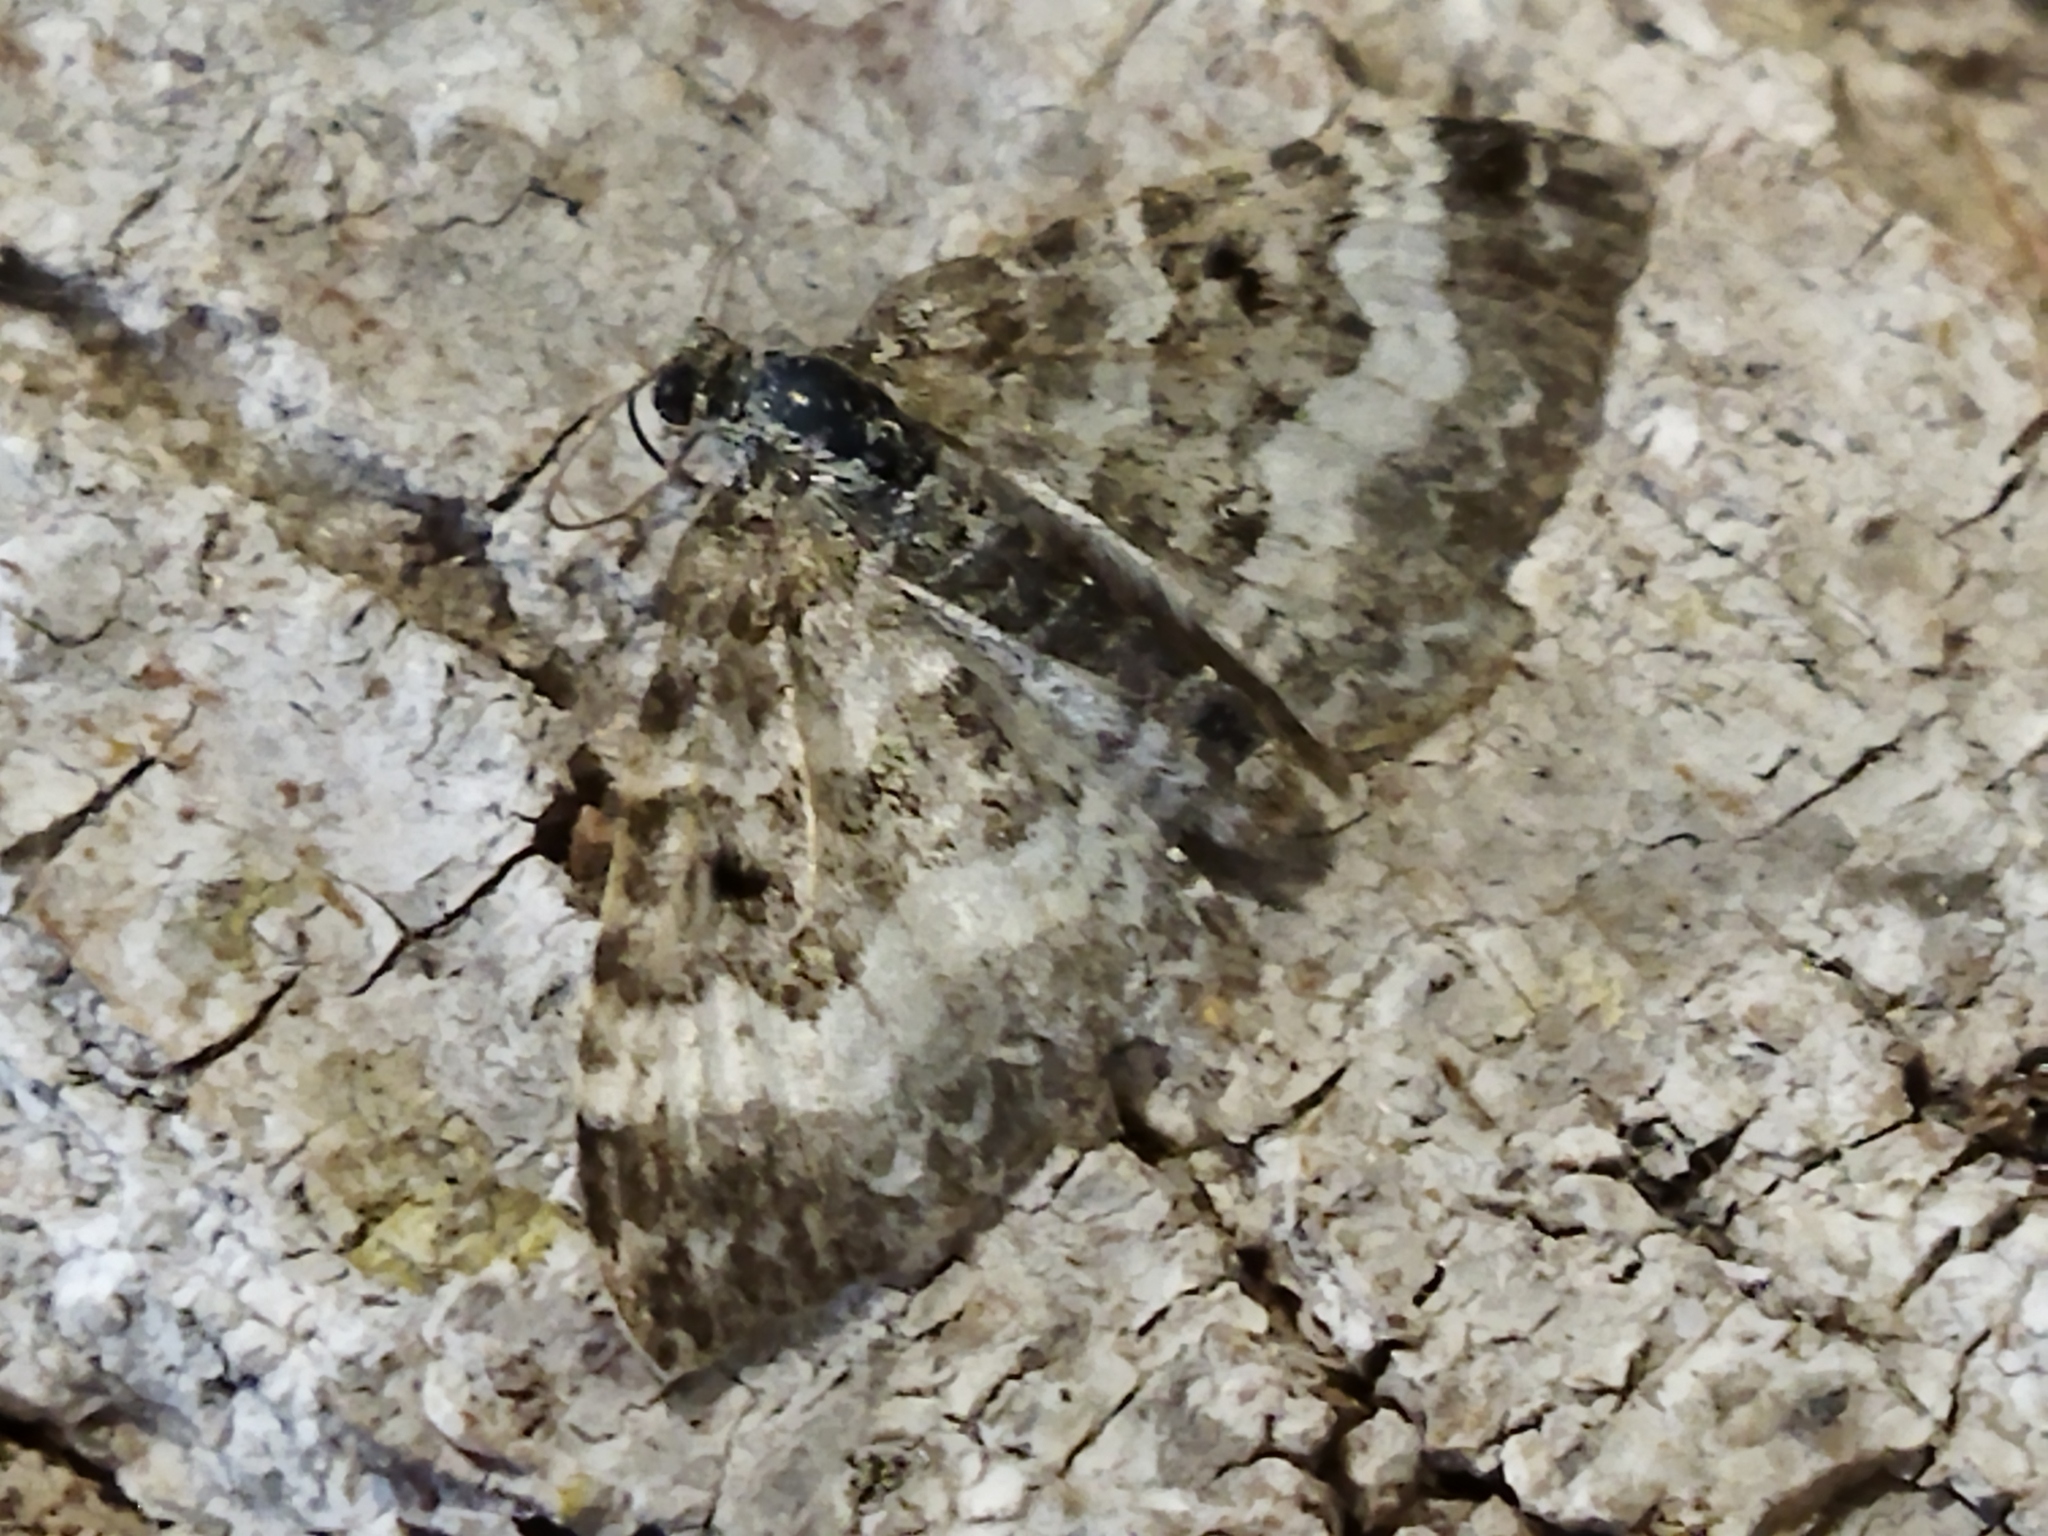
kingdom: Animalia
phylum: Arthropoda
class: Insecta
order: Lepidoptera
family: Geometridae
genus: Epirrhoe
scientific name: Epirrhoe alternata
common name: Common carpet
